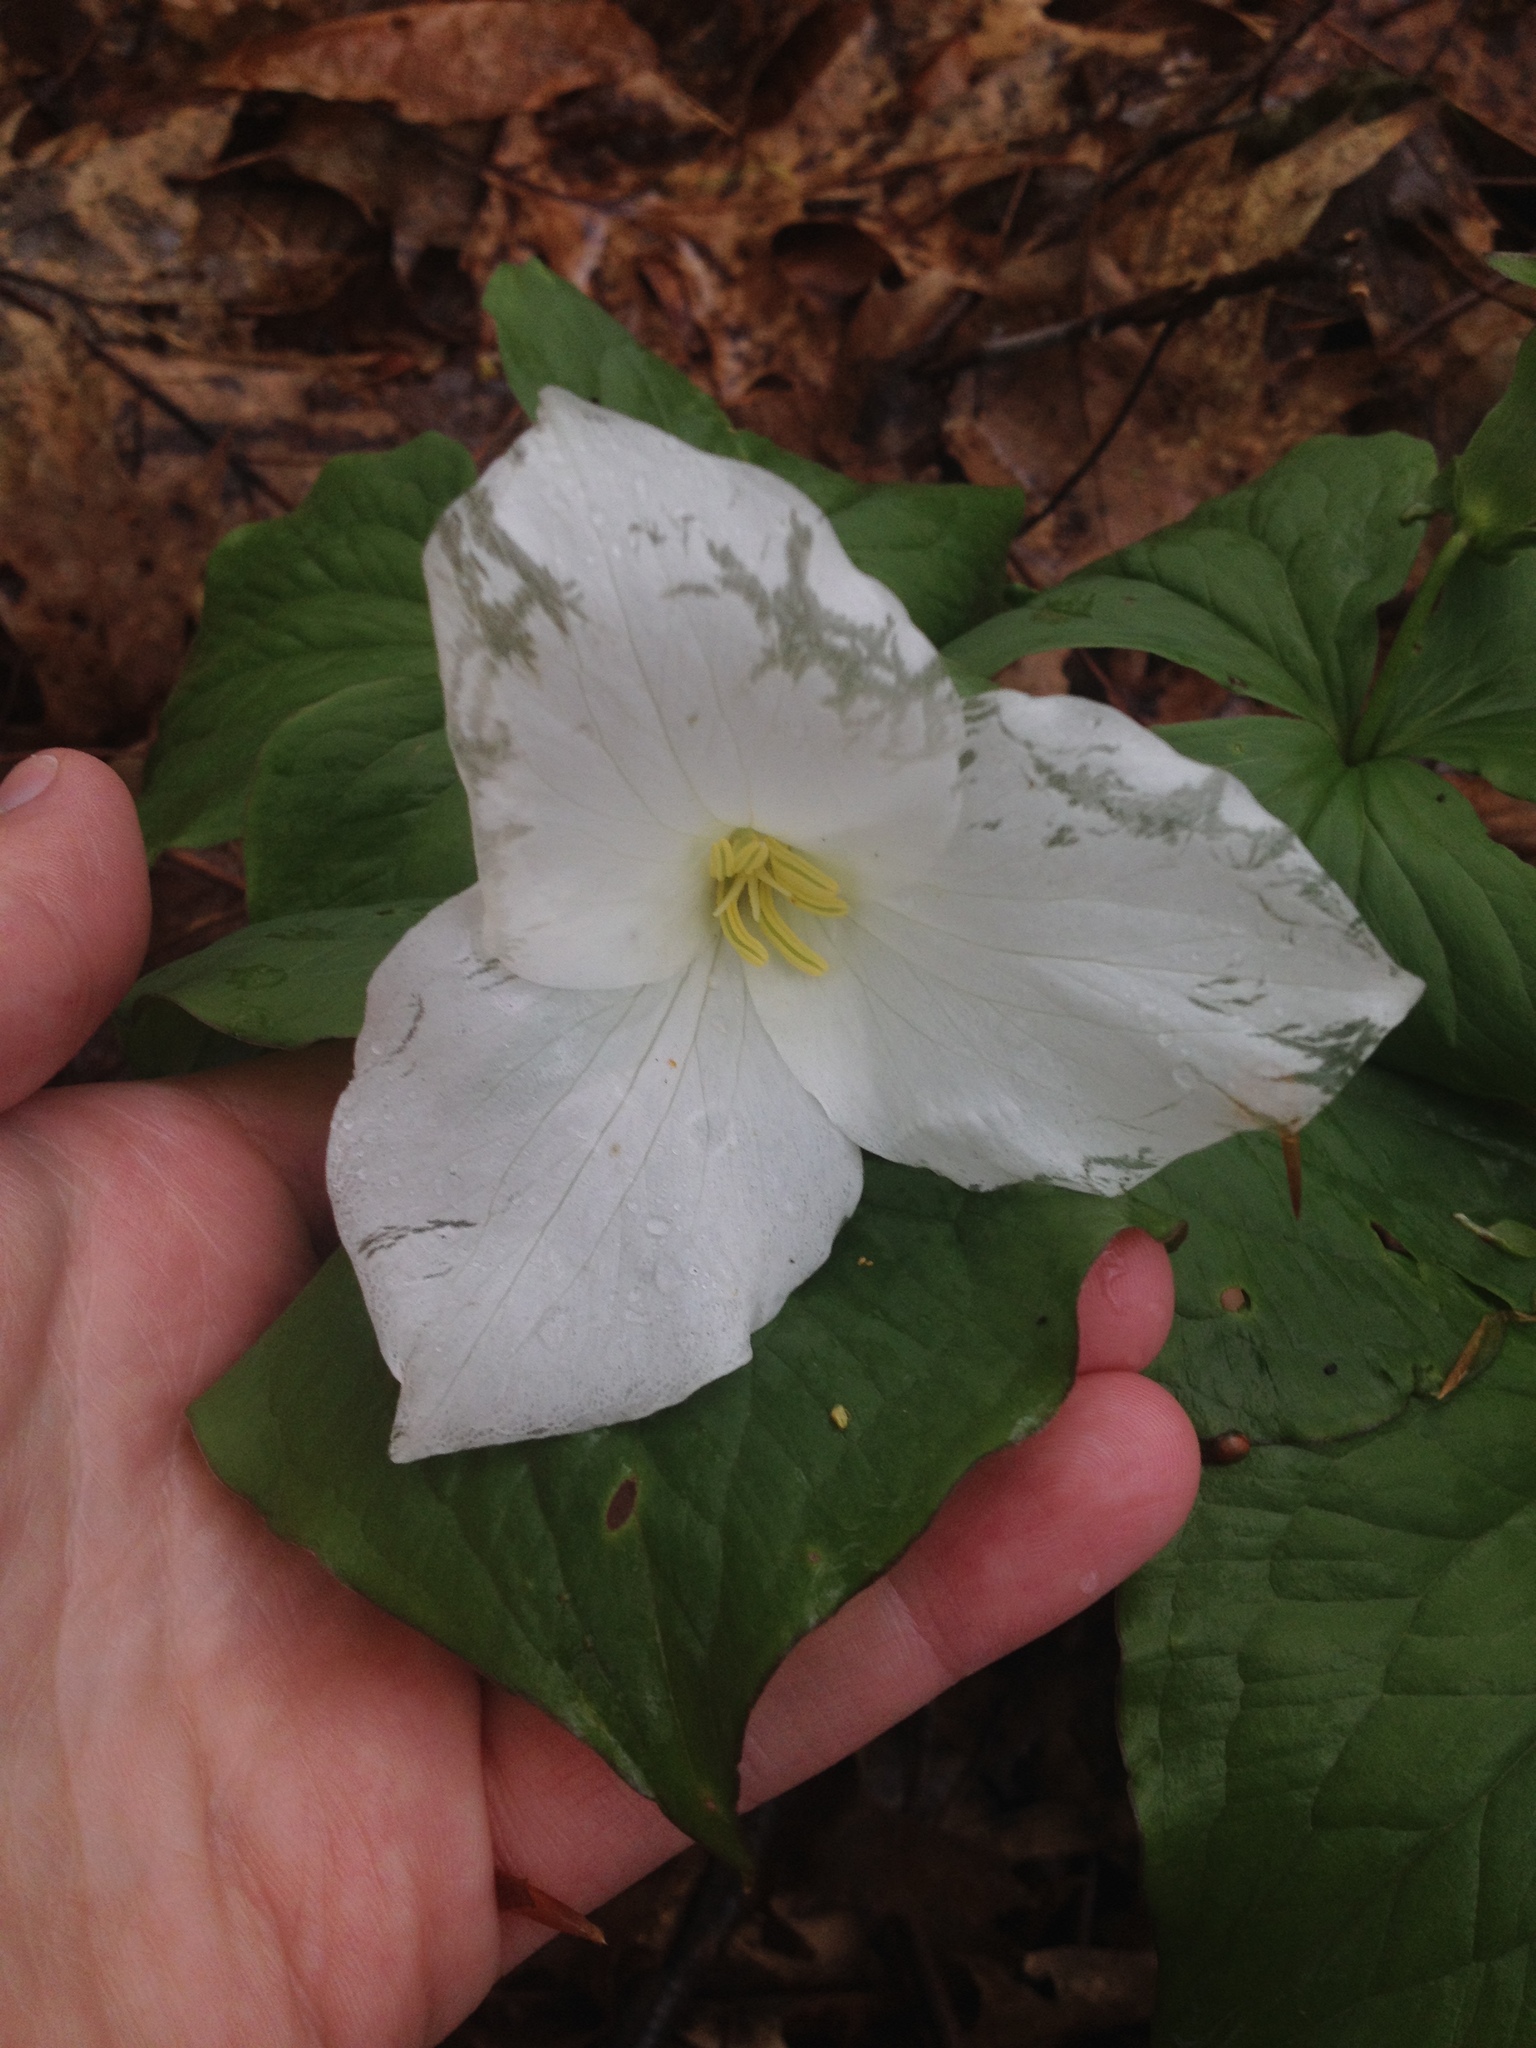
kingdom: Plantae
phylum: Tracheophyta
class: Liliopsida
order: Liliales
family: Melanthiaceae
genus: Trillium
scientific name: Trillium grandiflorum
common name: Great white trillium
